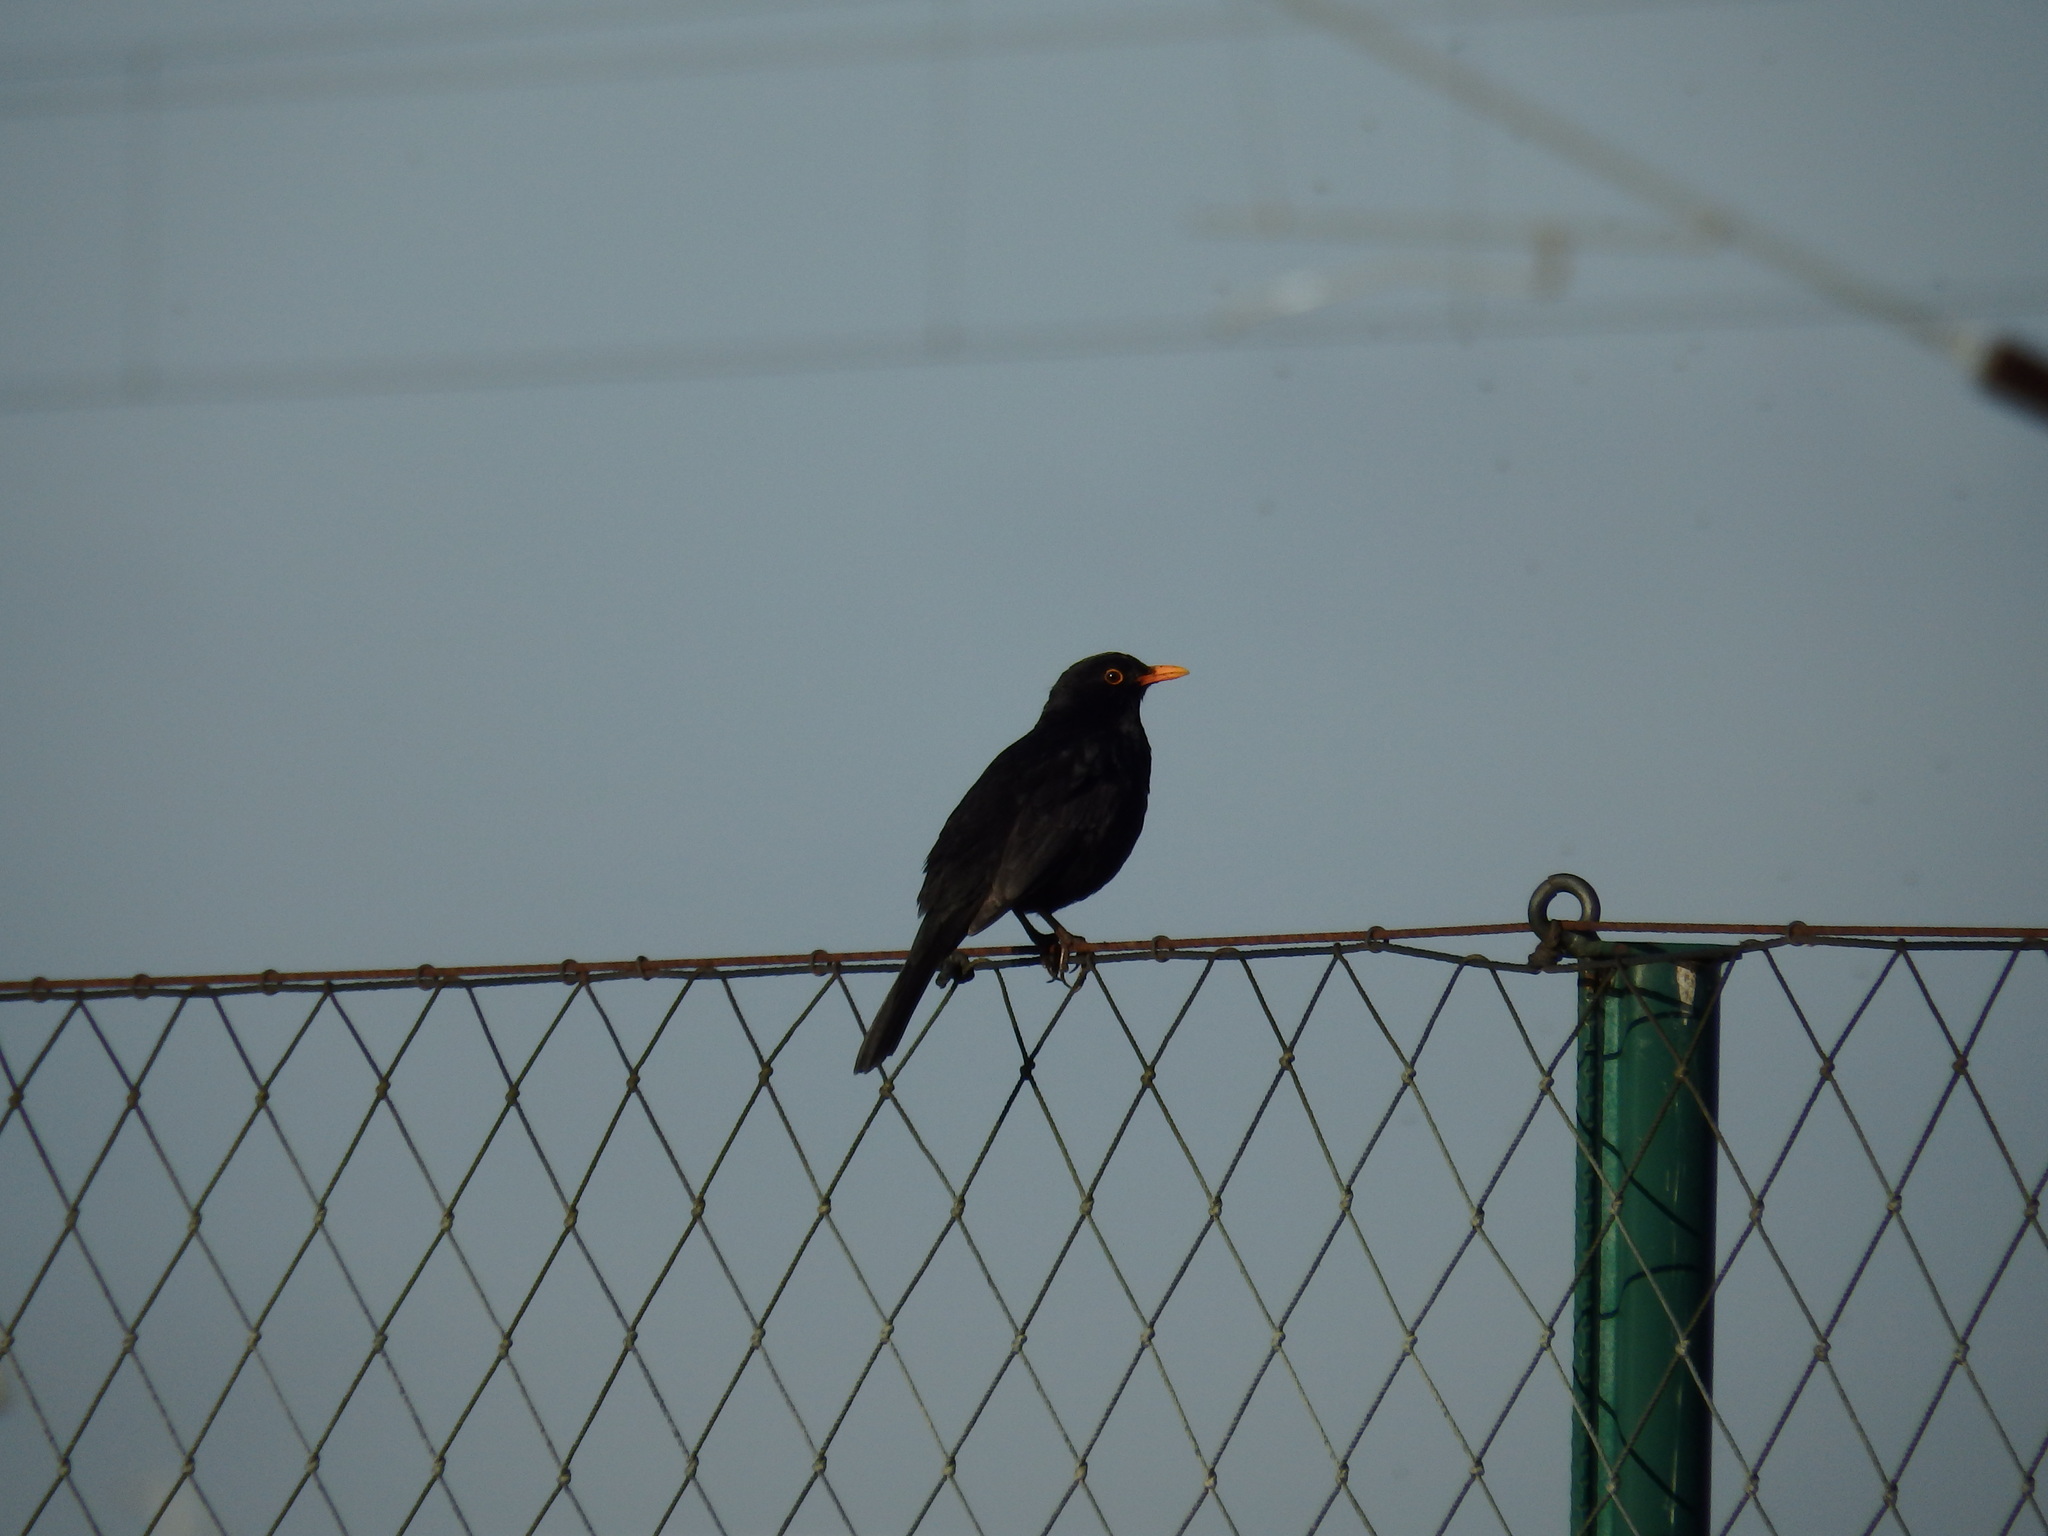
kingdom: Animalia
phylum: Chordata
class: Aves
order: Passeriformes
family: Turdidae
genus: Turdus
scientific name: Turdus merula
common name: Common blackbird
